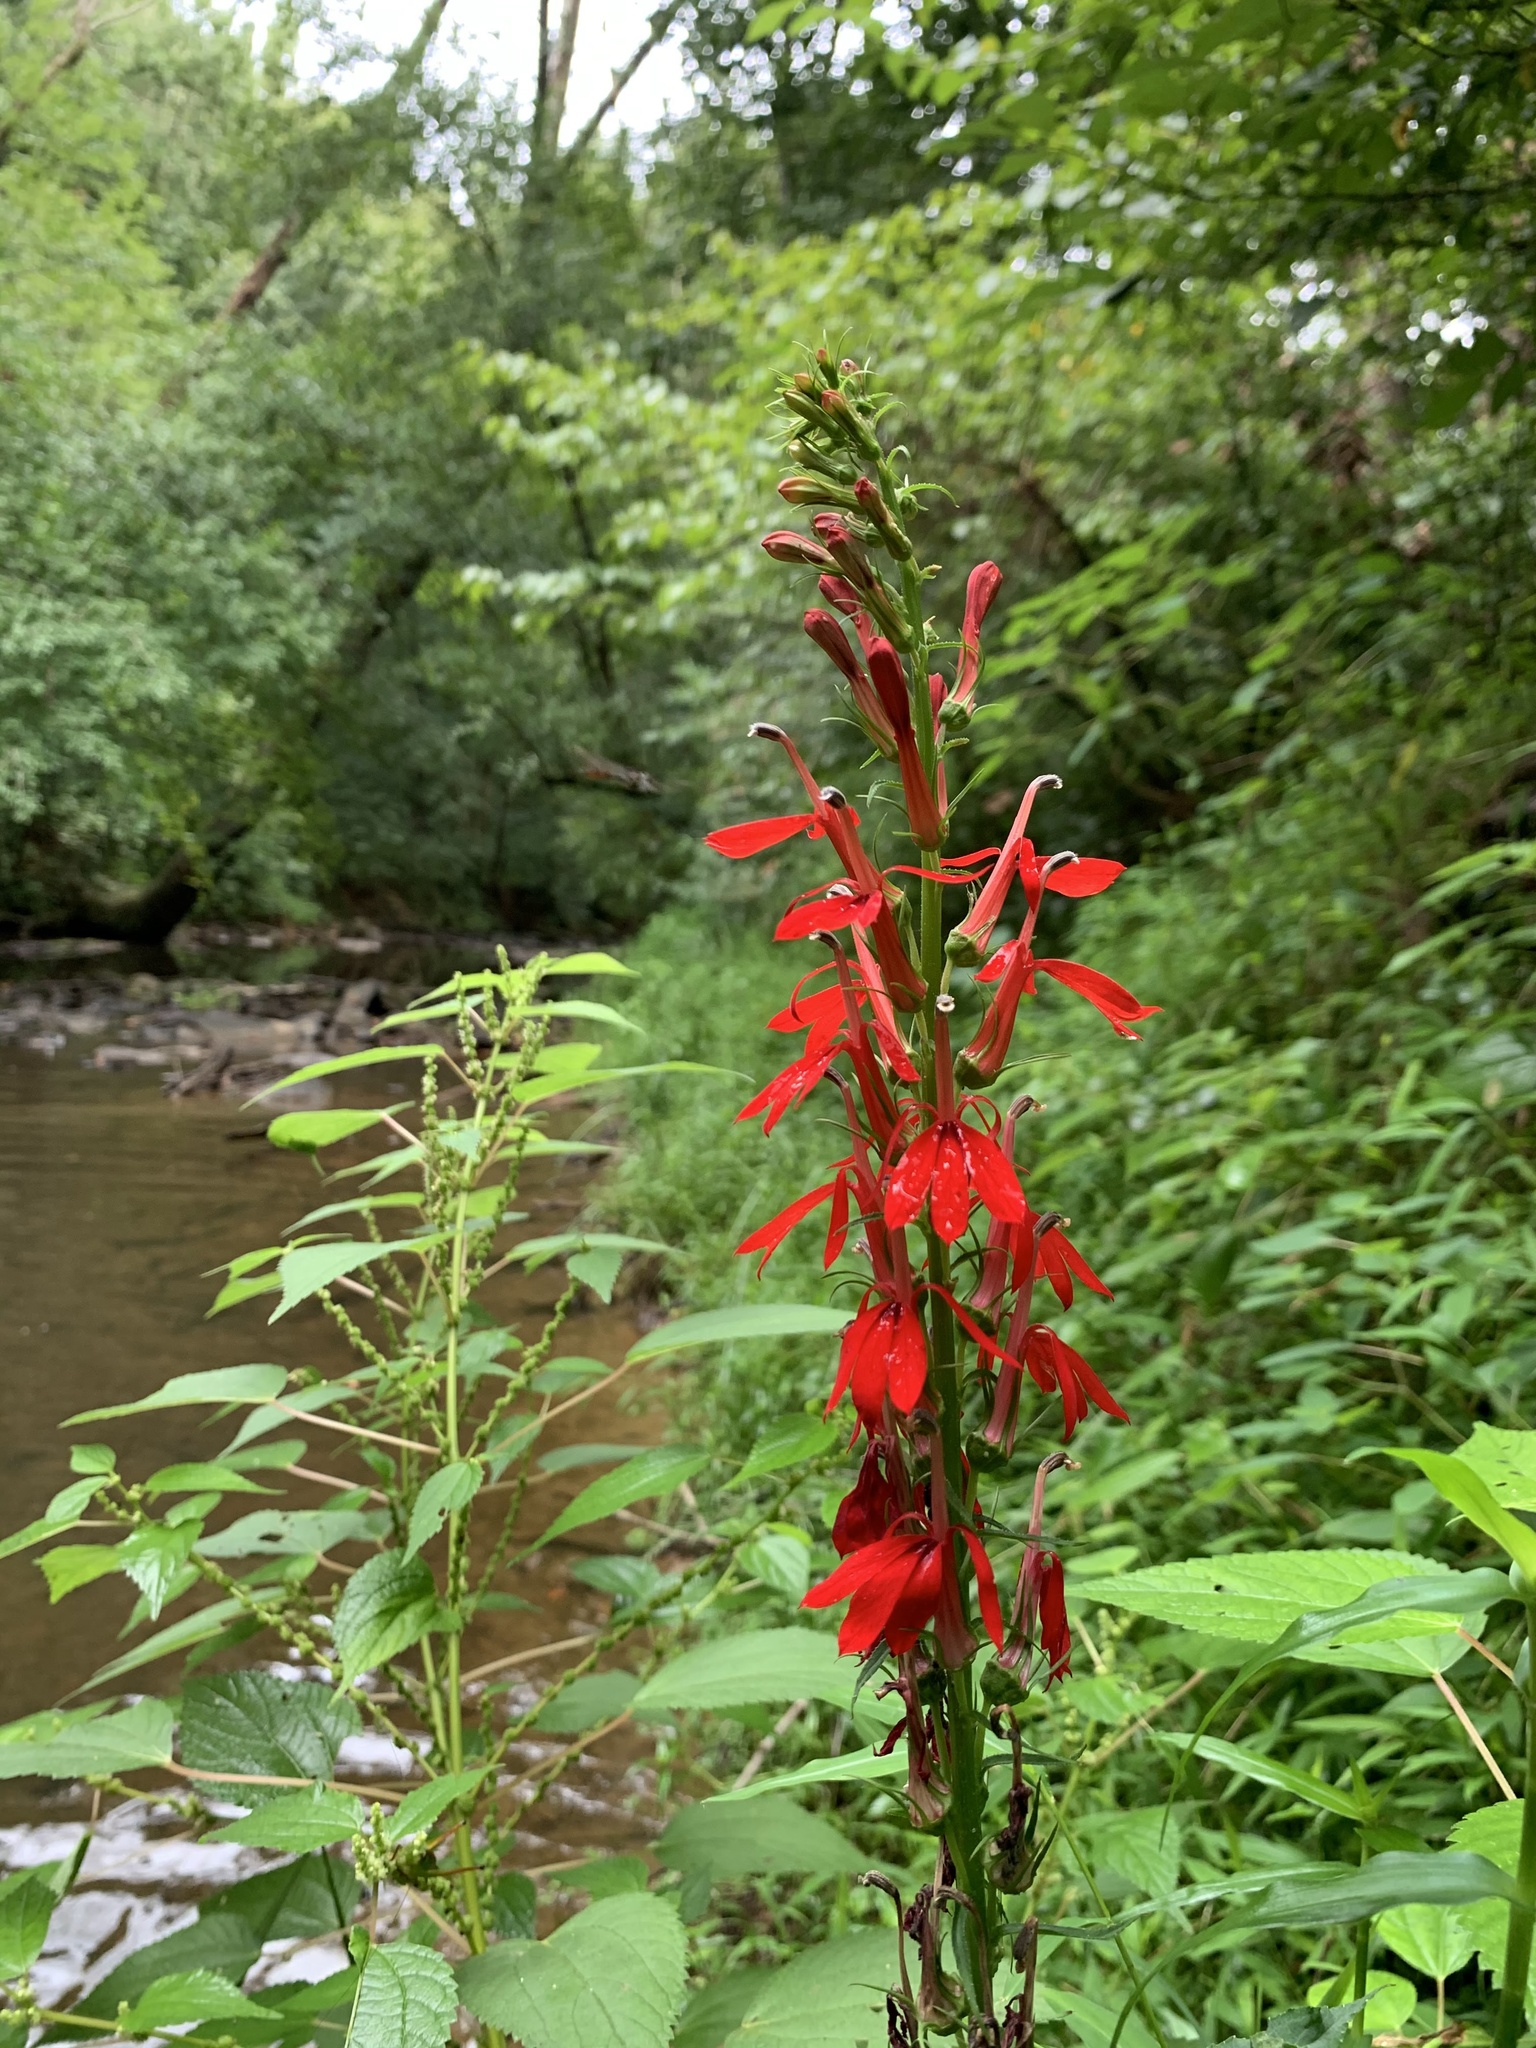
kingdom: Plantae
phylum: Tracheophyta
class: Magnoliopsida
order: Asterales
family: Campanulaceae
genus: Lobelia
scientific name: Lobelia cardinalis
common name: Cardinal flower
